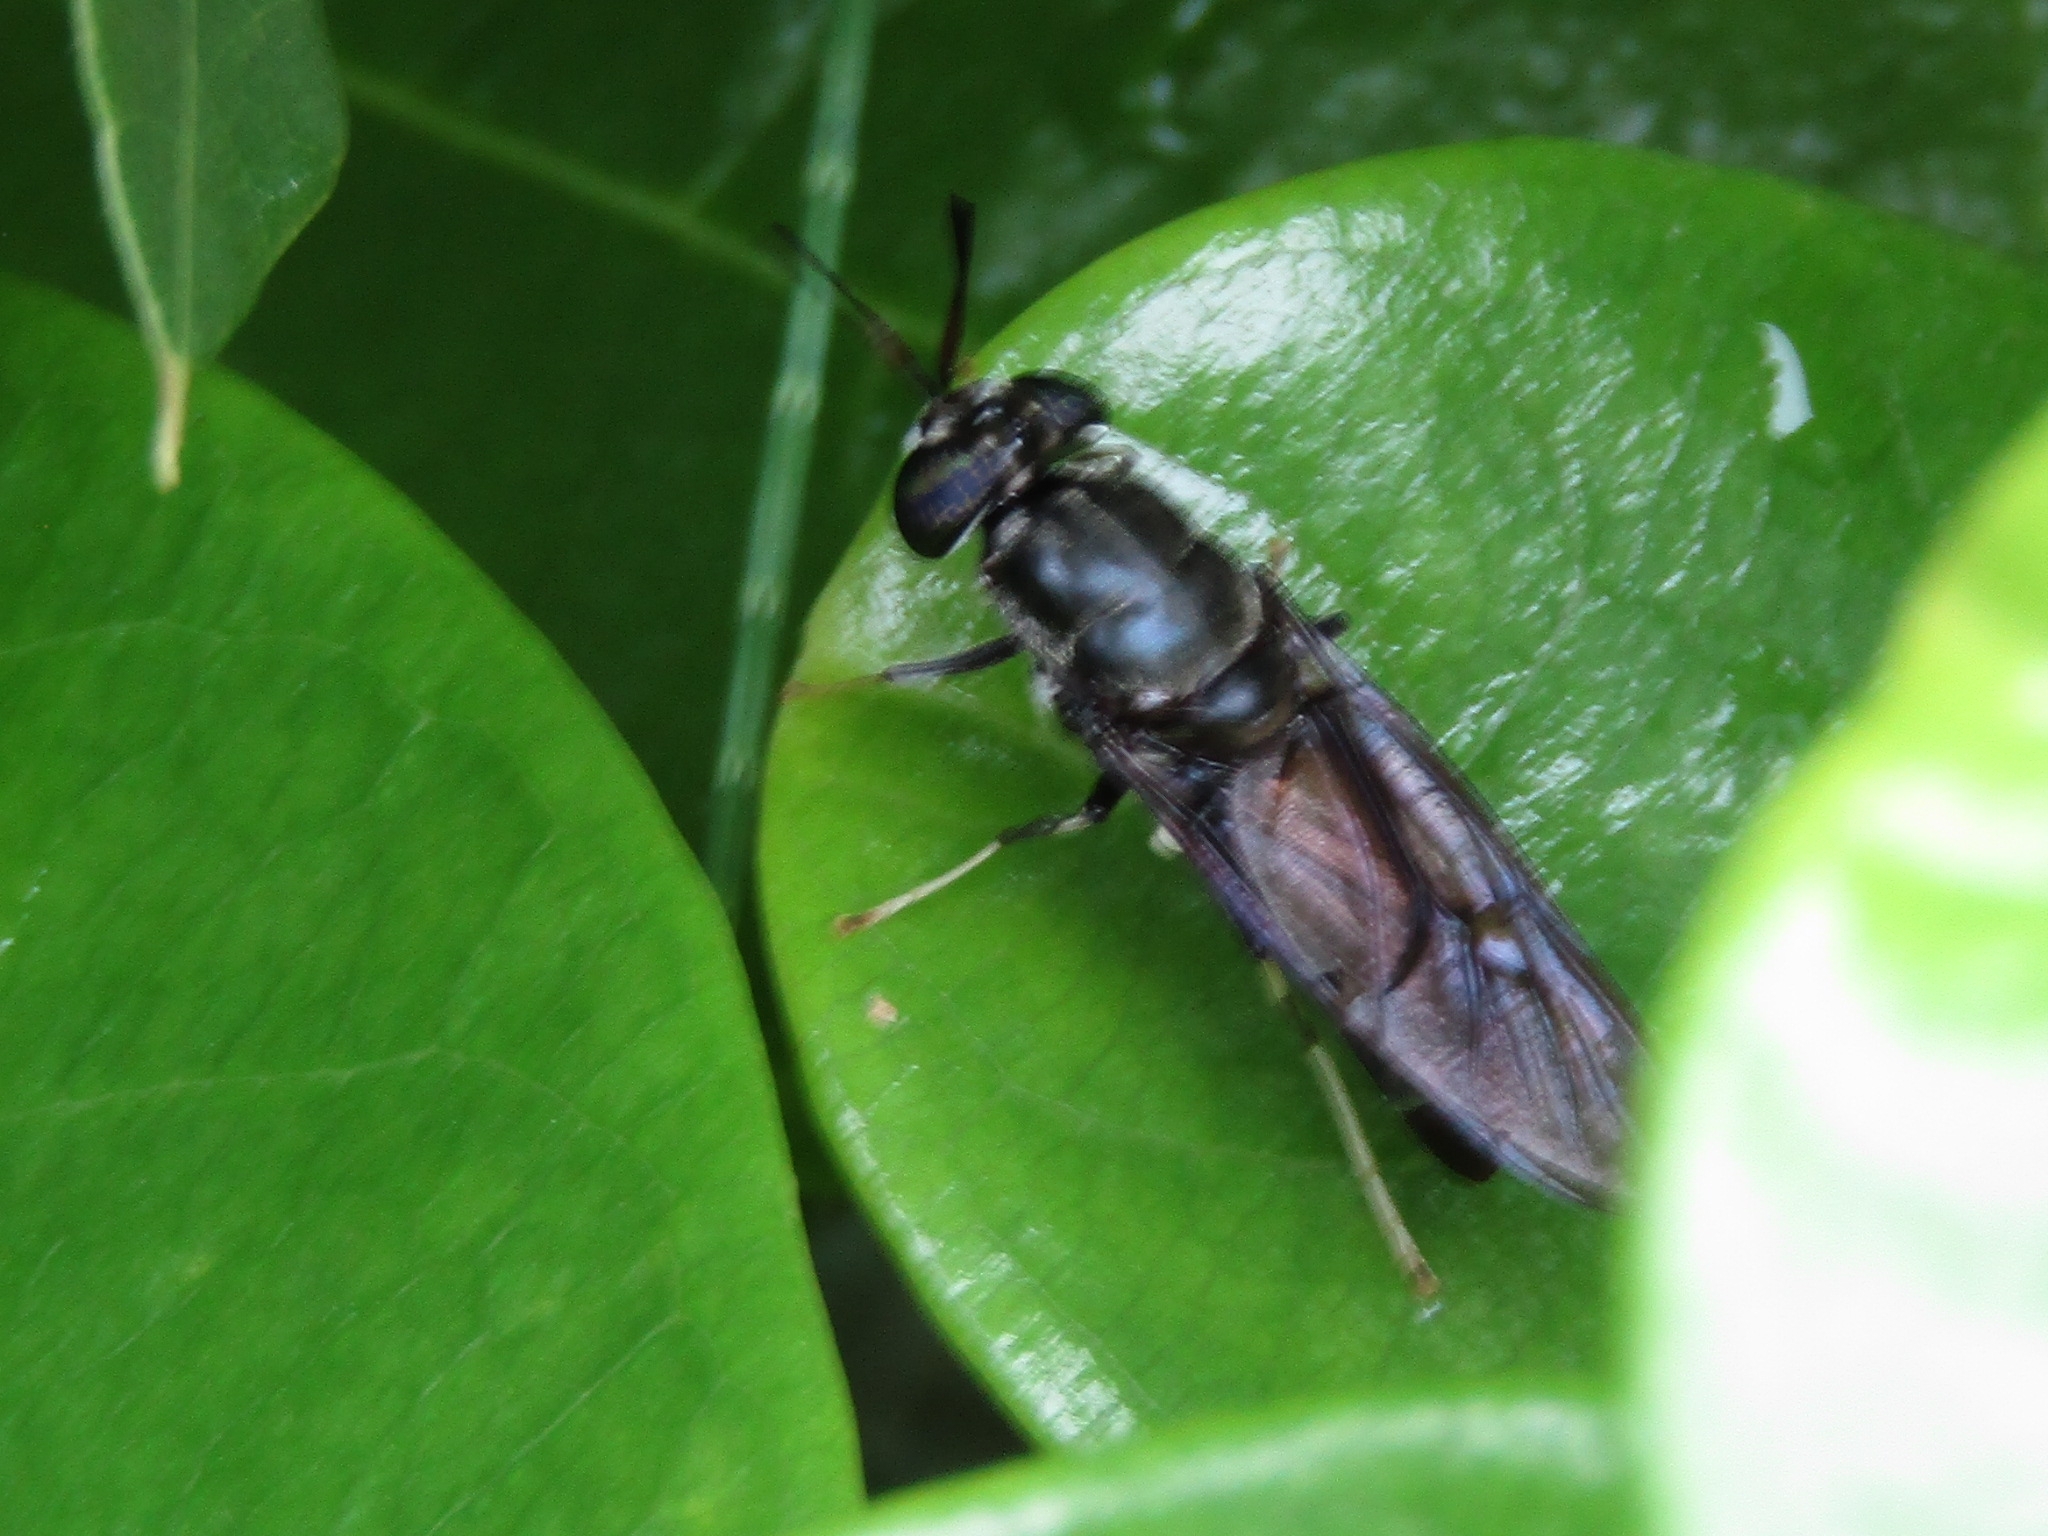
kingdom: Animalia
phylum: Arthropoda
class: Insecta
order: Diptera
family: Stratiomyidae
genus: Hermetia
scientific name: Hermetia illucens
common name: Black soldier fly
